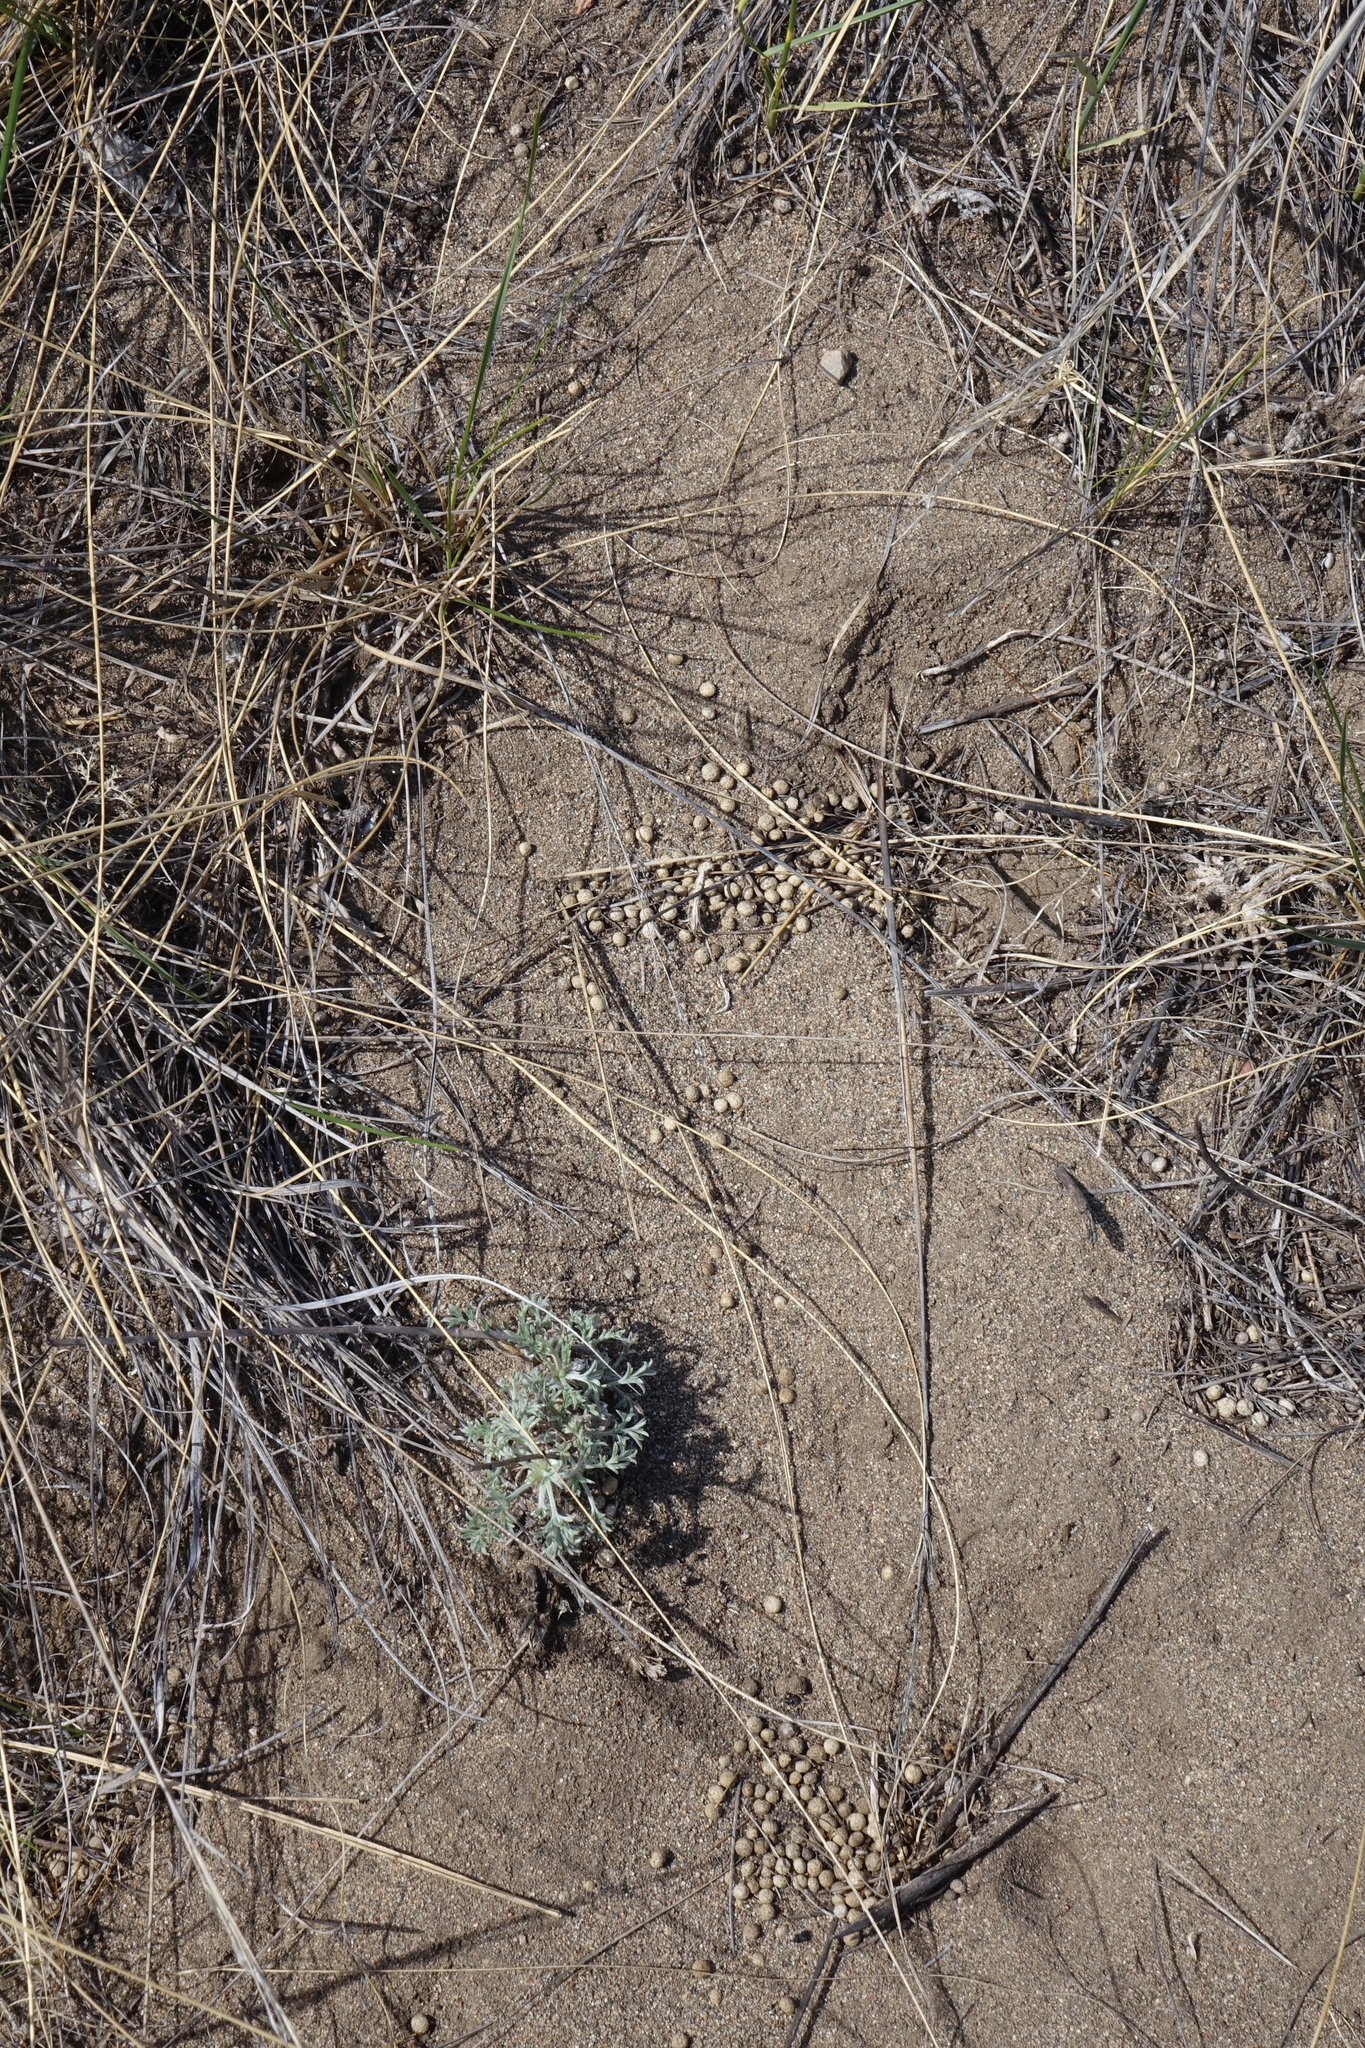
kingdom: Animalia
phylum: Chordata
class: Mammalia
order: Lagomorpha
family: Ochotonidae
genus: Ochotona
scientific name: Ochotona dauurica
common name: Daurian pika
